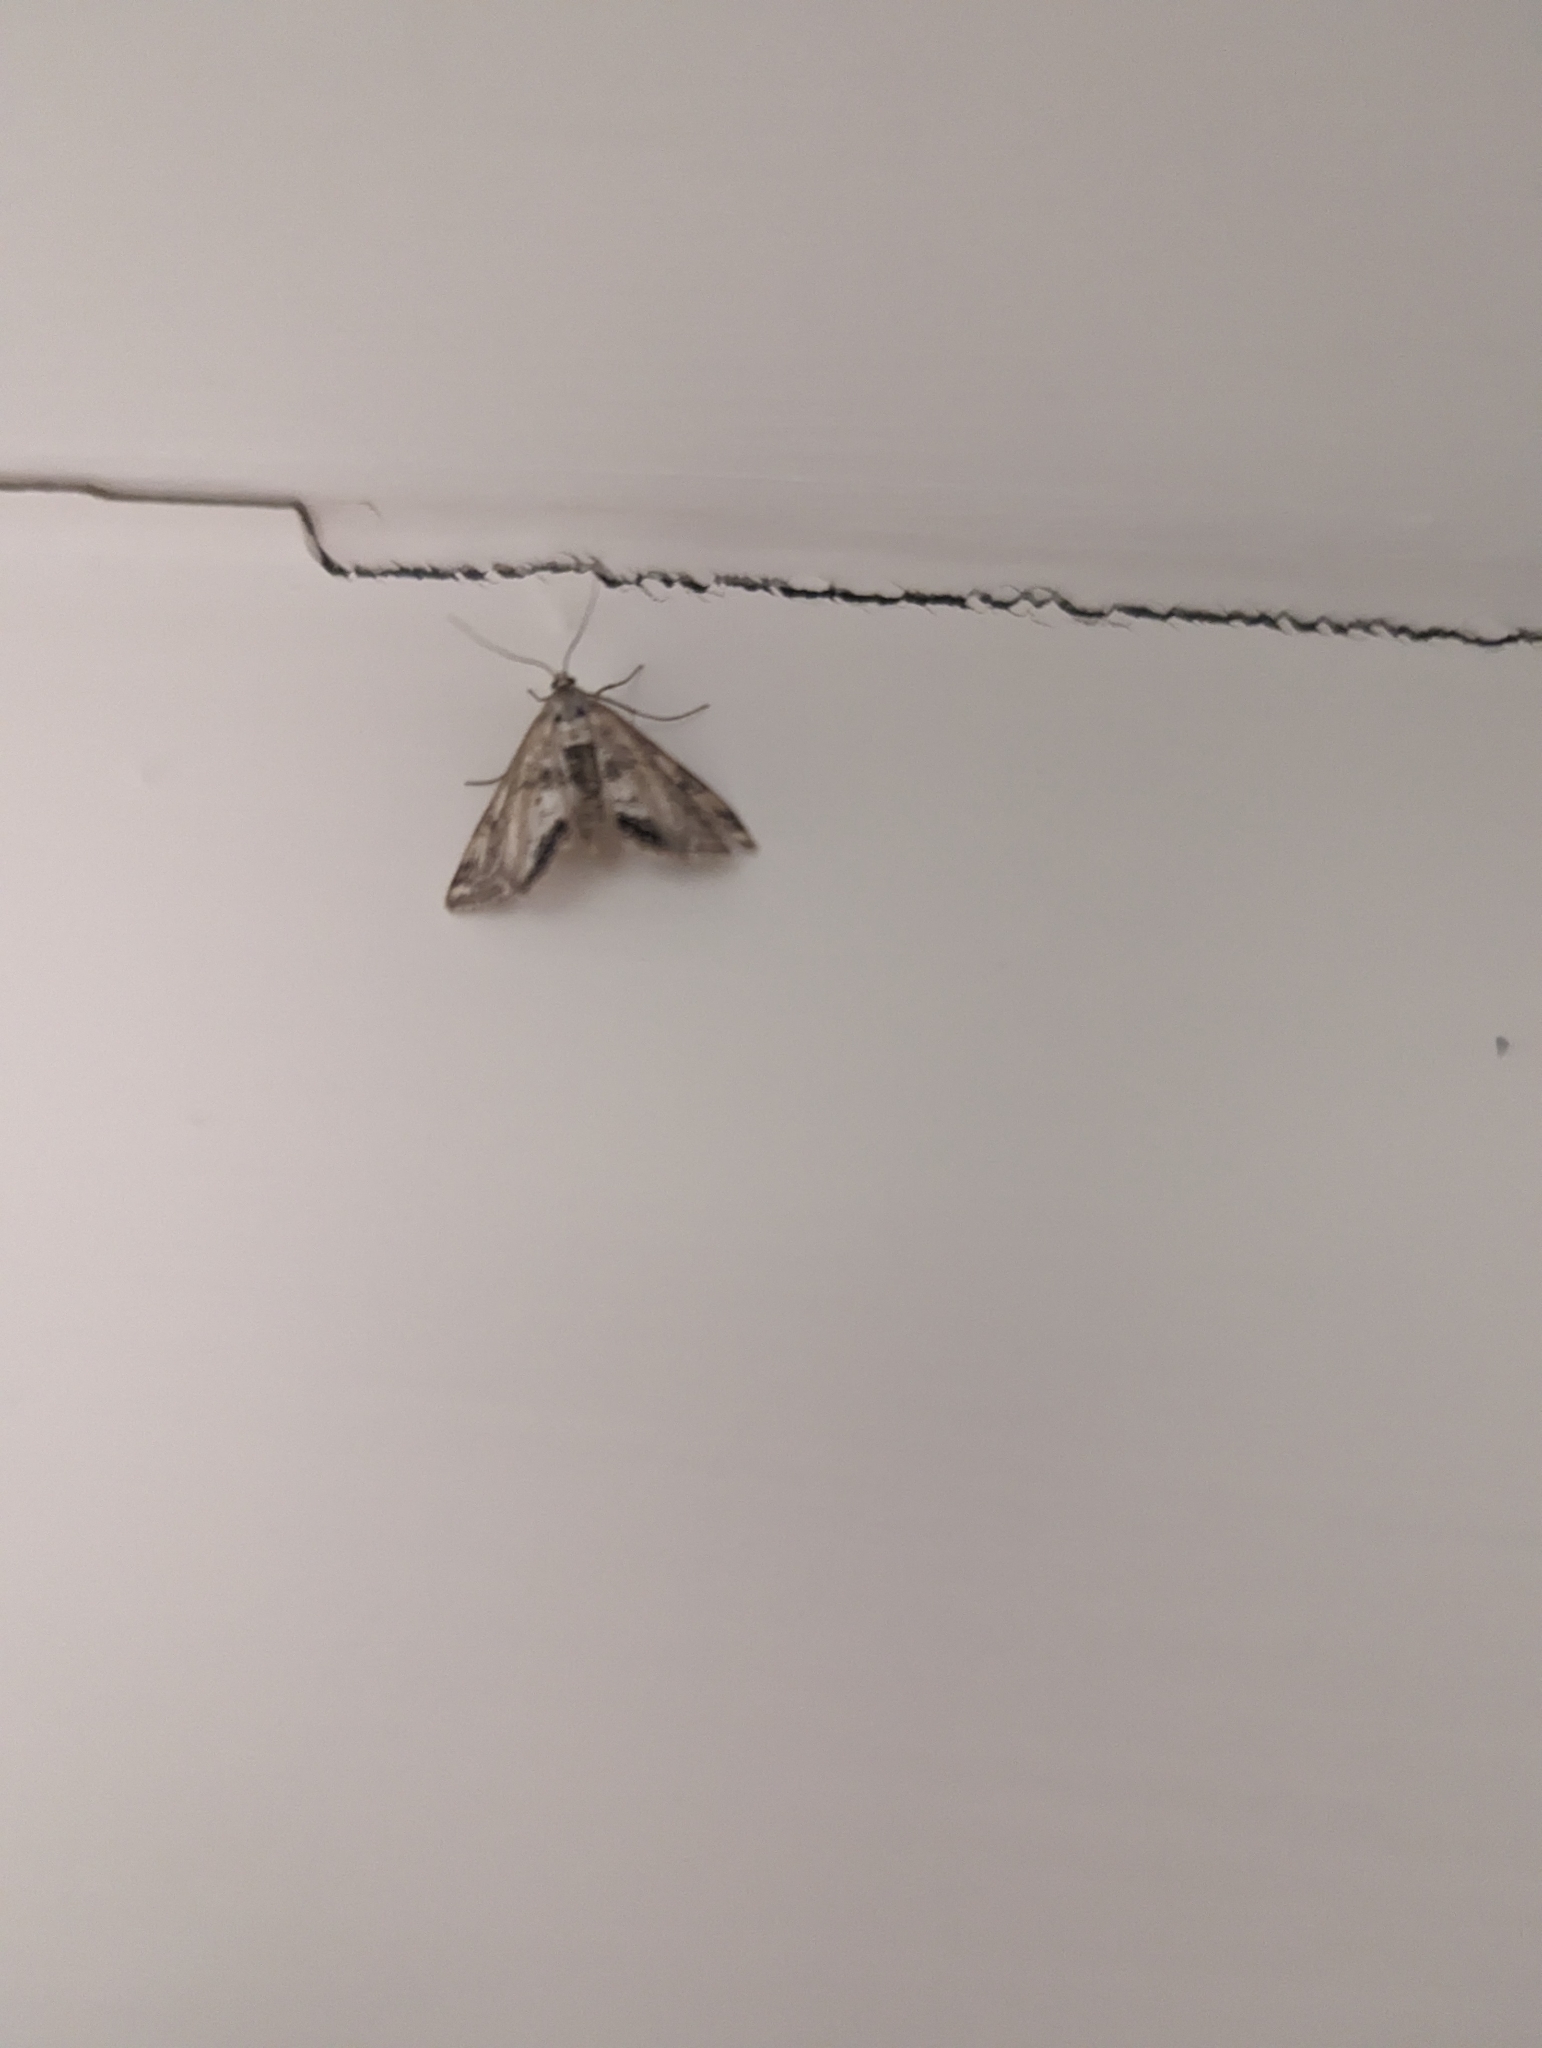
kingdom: Animalia
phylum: Arthropoda
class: Insecta
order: Lepidoptera
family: Crambidae
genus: Cataclysta
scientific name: Cataclysta lemnata
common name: Small china-mark
